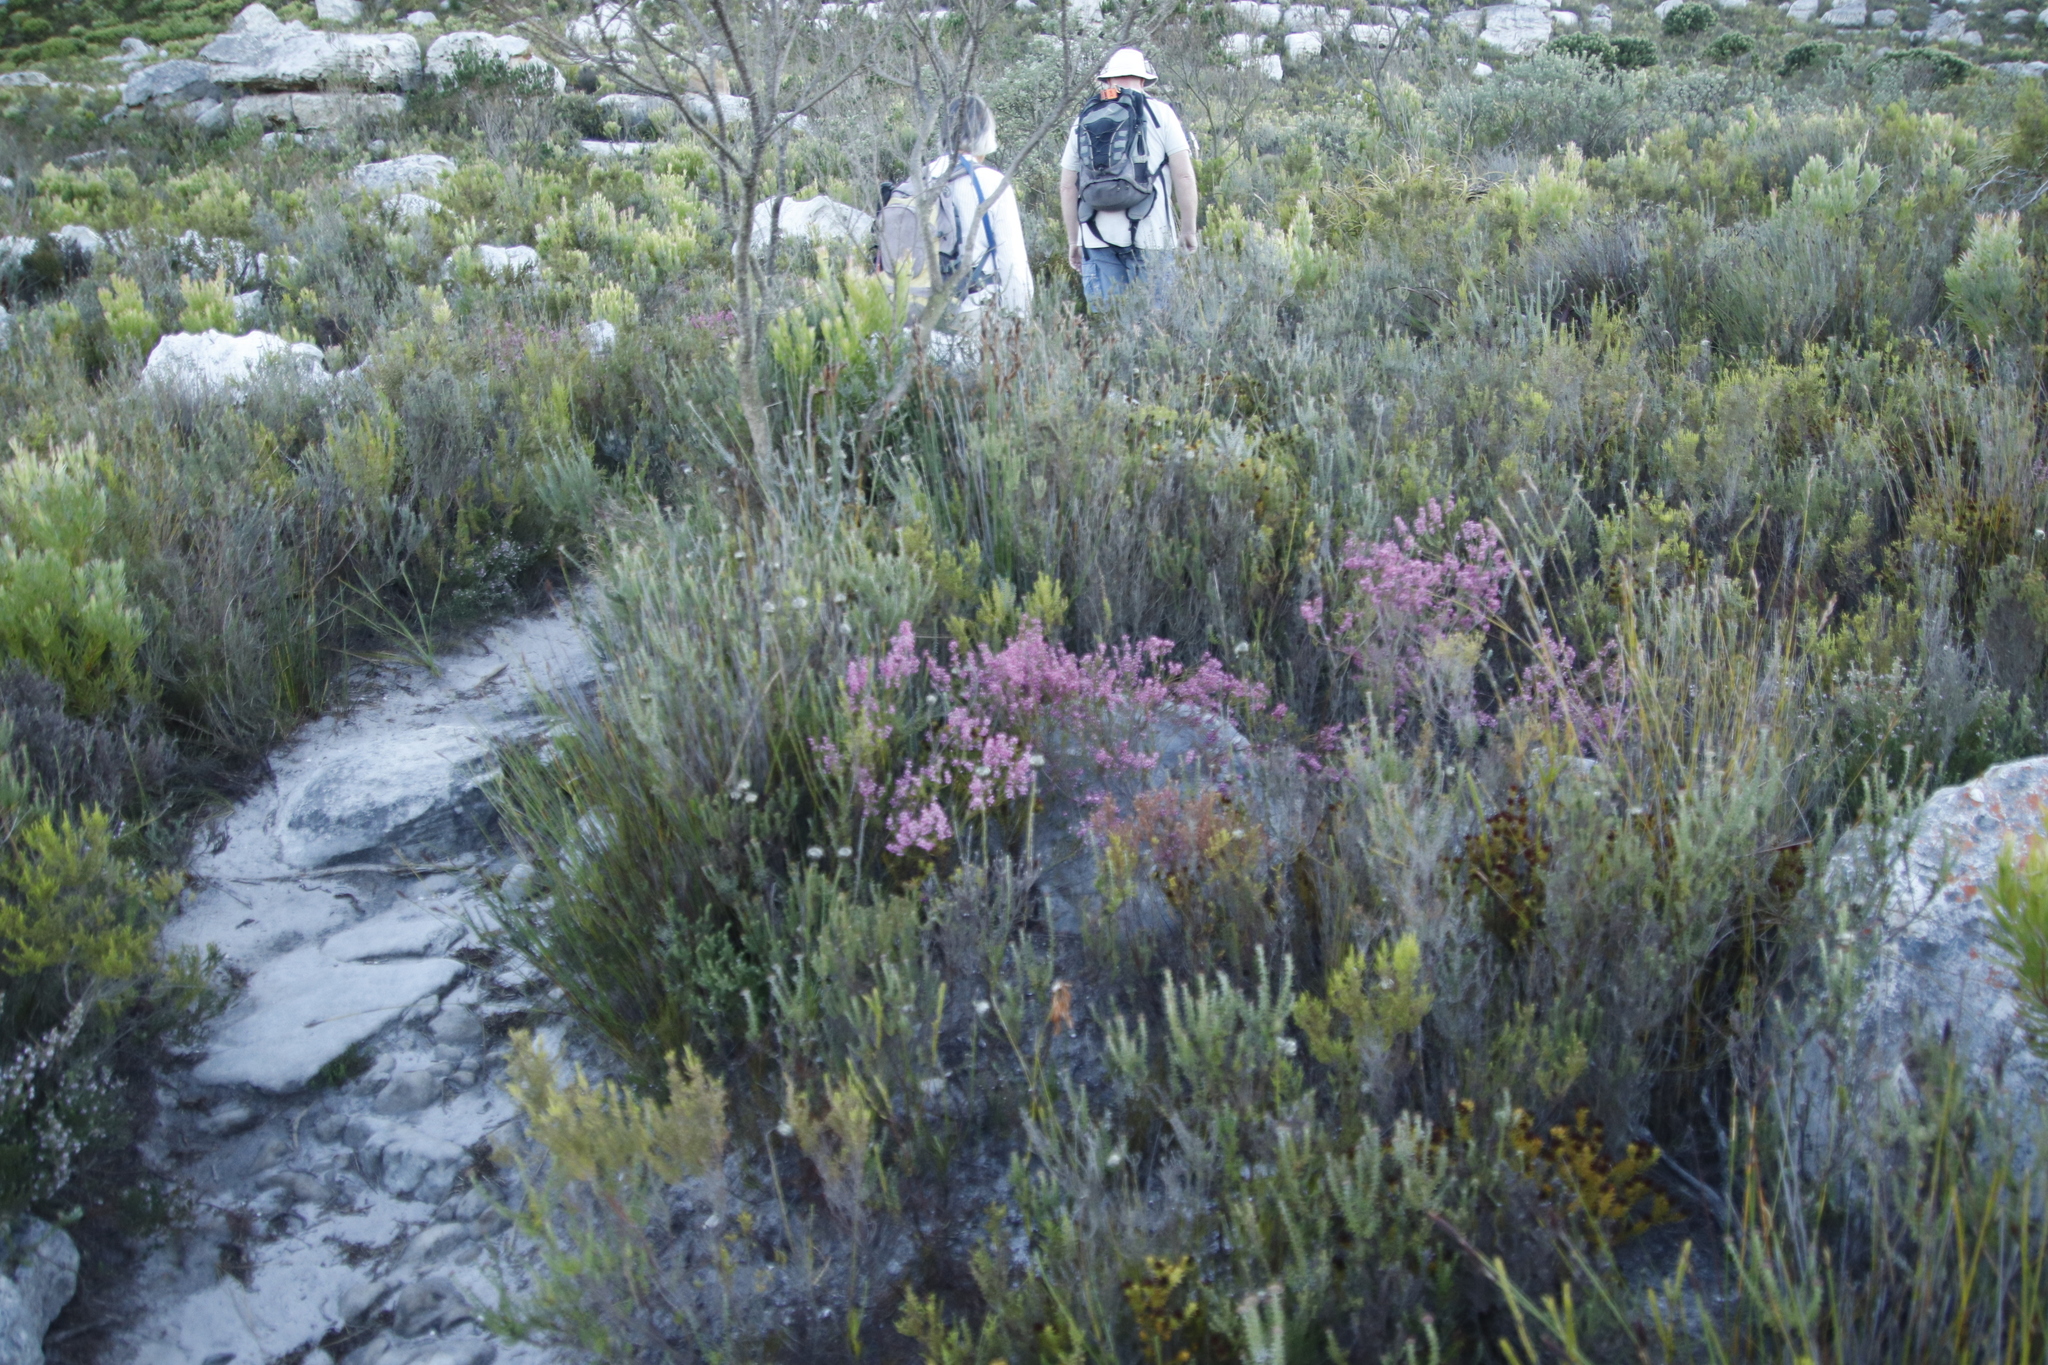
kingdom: Plantae
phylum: Tracheophyta
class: Magnoliopsida
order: Ericales
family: Ericaceae
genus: Erica
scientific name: Erica corifolia
